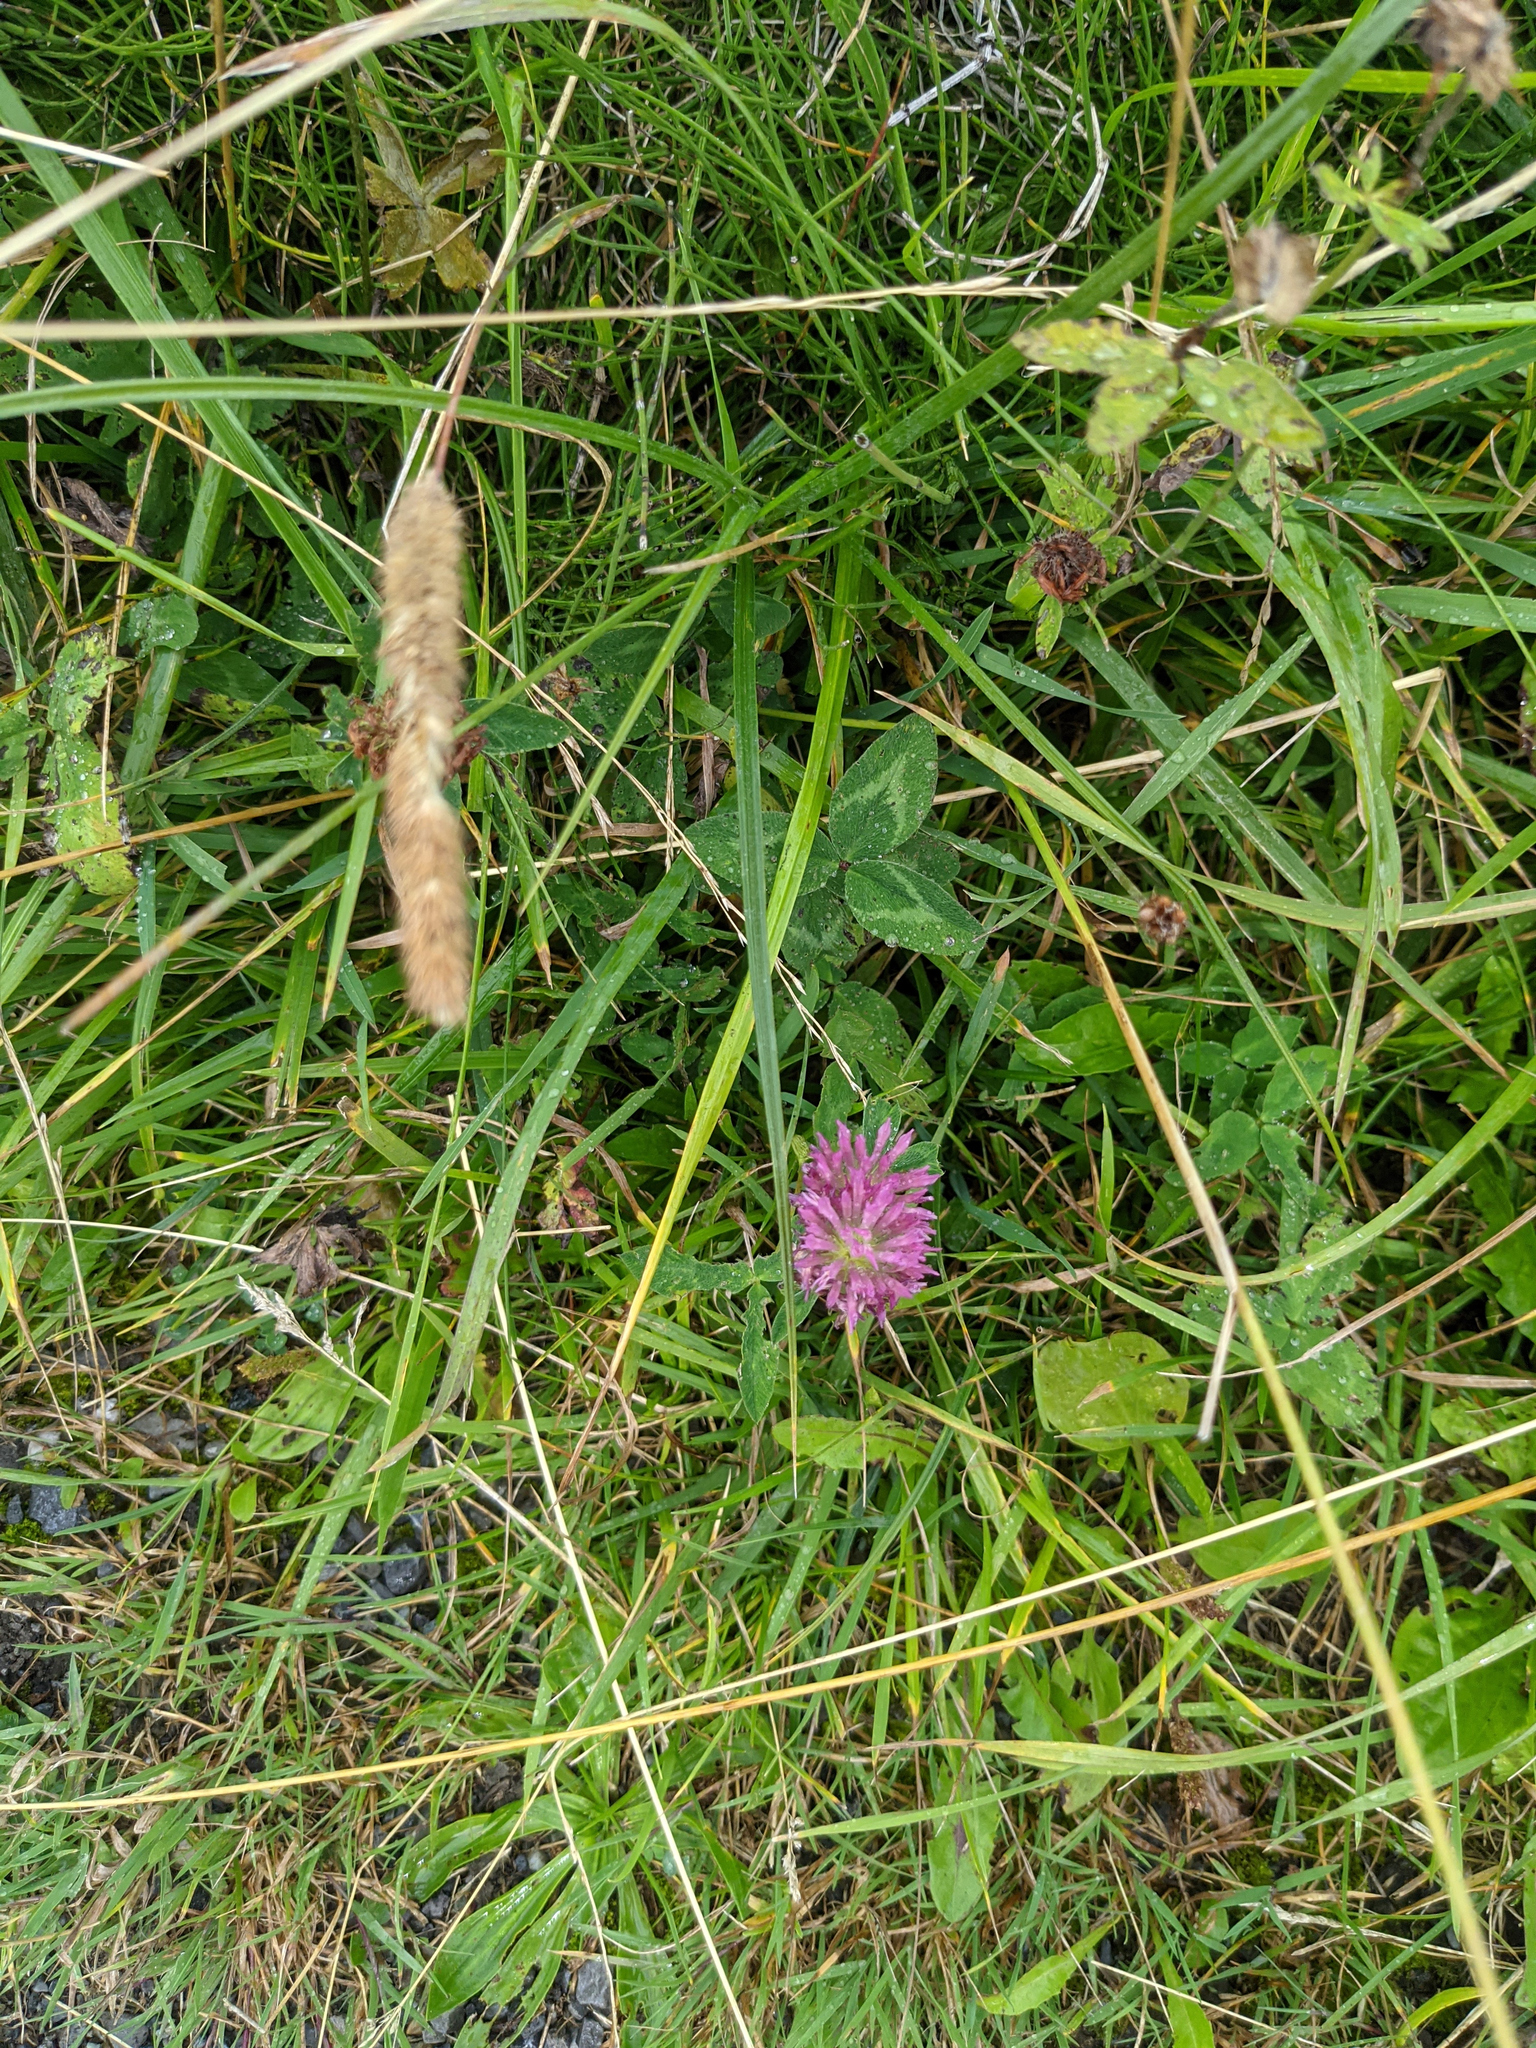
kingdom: Plantae
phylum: Tracheophyta
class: Magnoliopsida
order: Fabales
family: Fabaceae
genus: Trifolium
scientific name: Trifolium pratense
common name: Red clover
